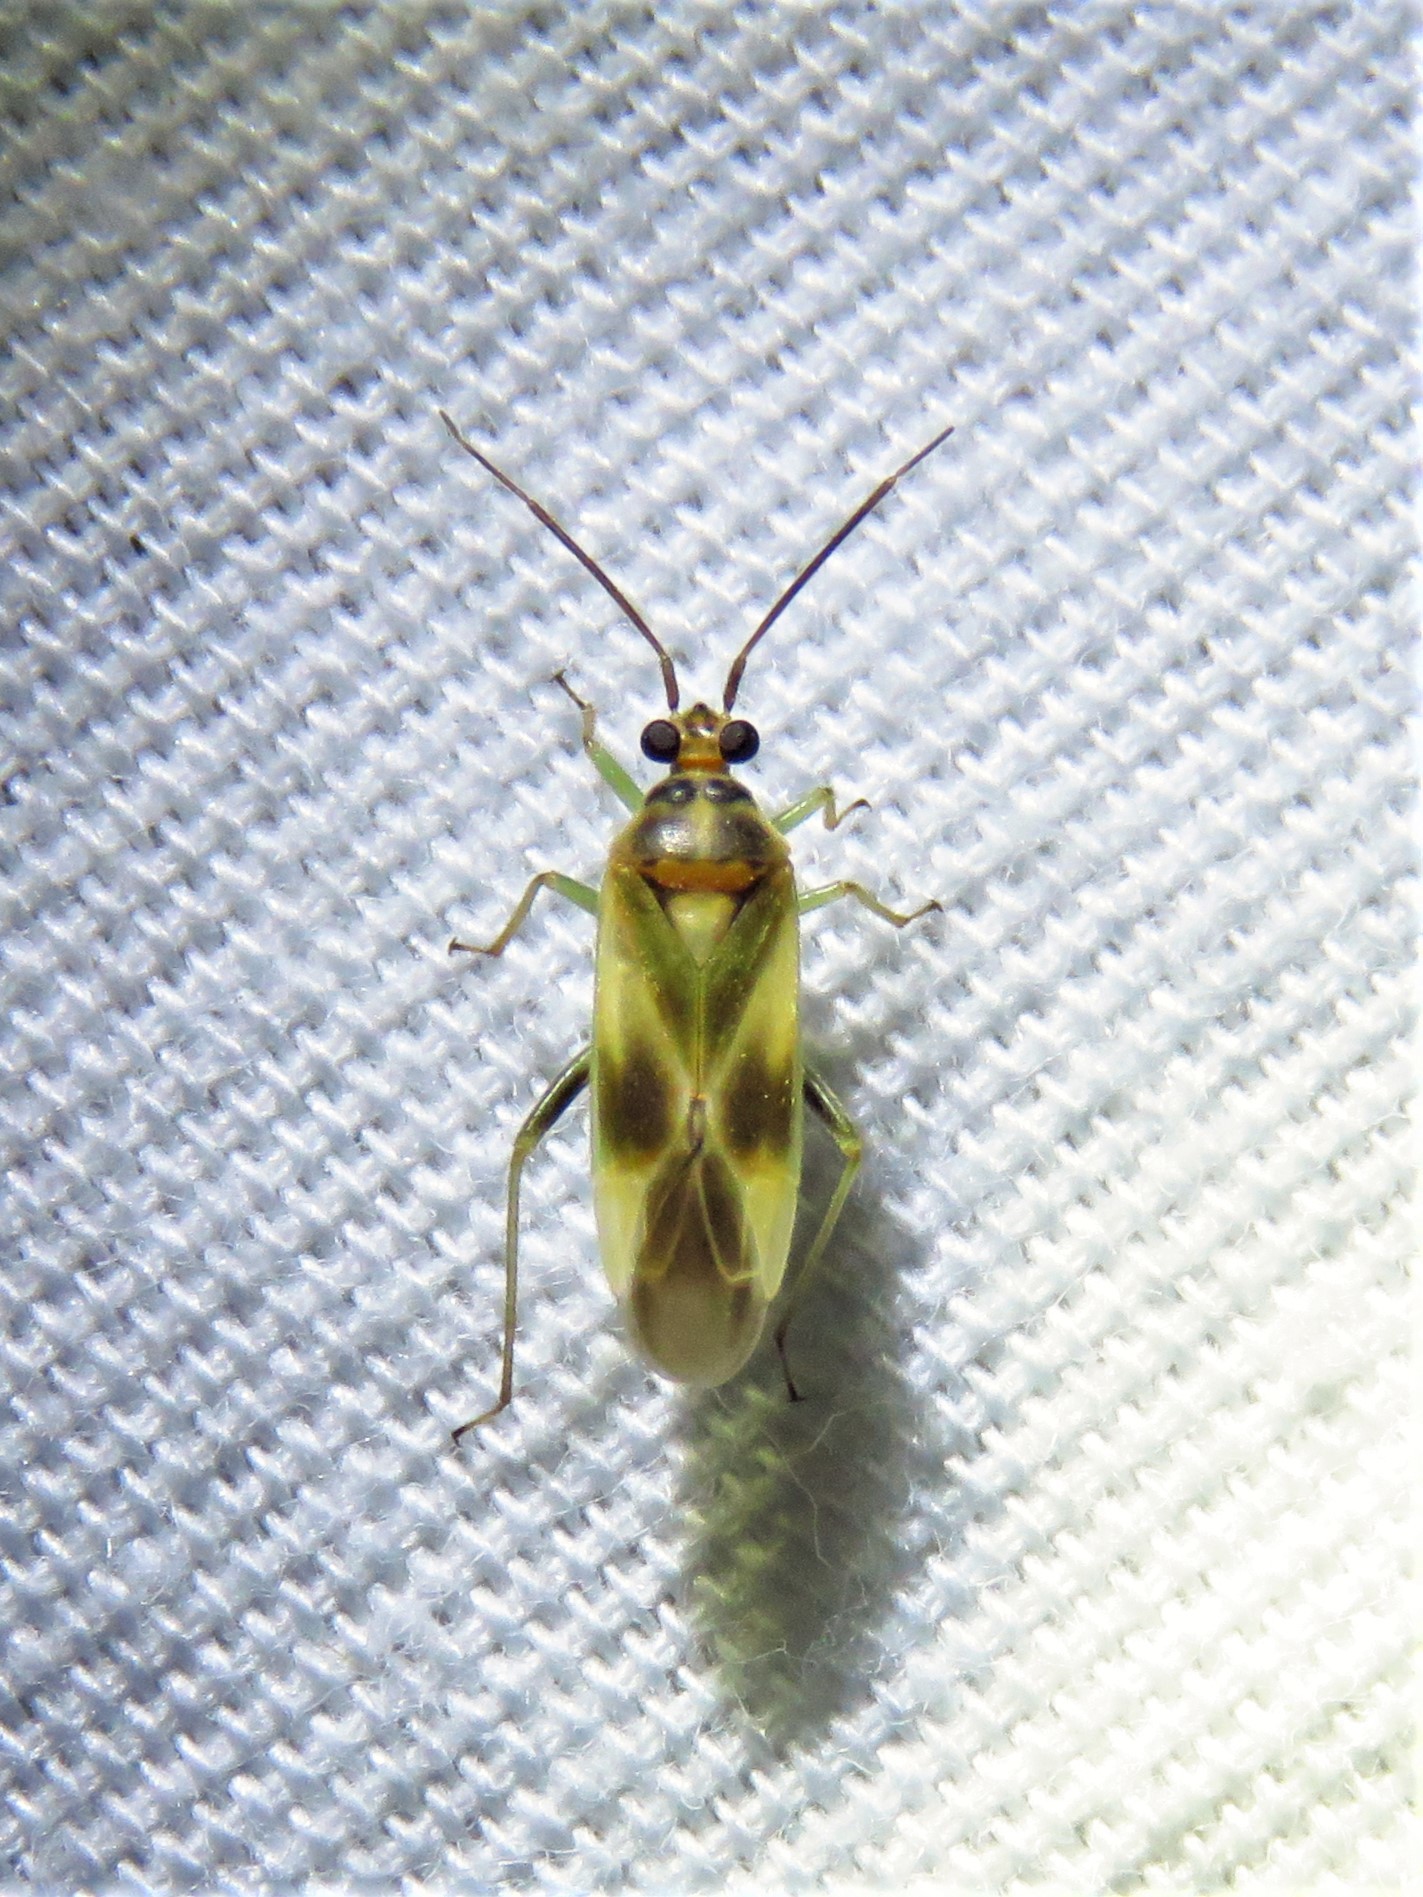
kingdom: Animalia
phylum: Arthropoda
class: Insecta
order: Hemiptera
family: Miridae
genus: Orthotylus
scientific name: Orthotylus ornatus
